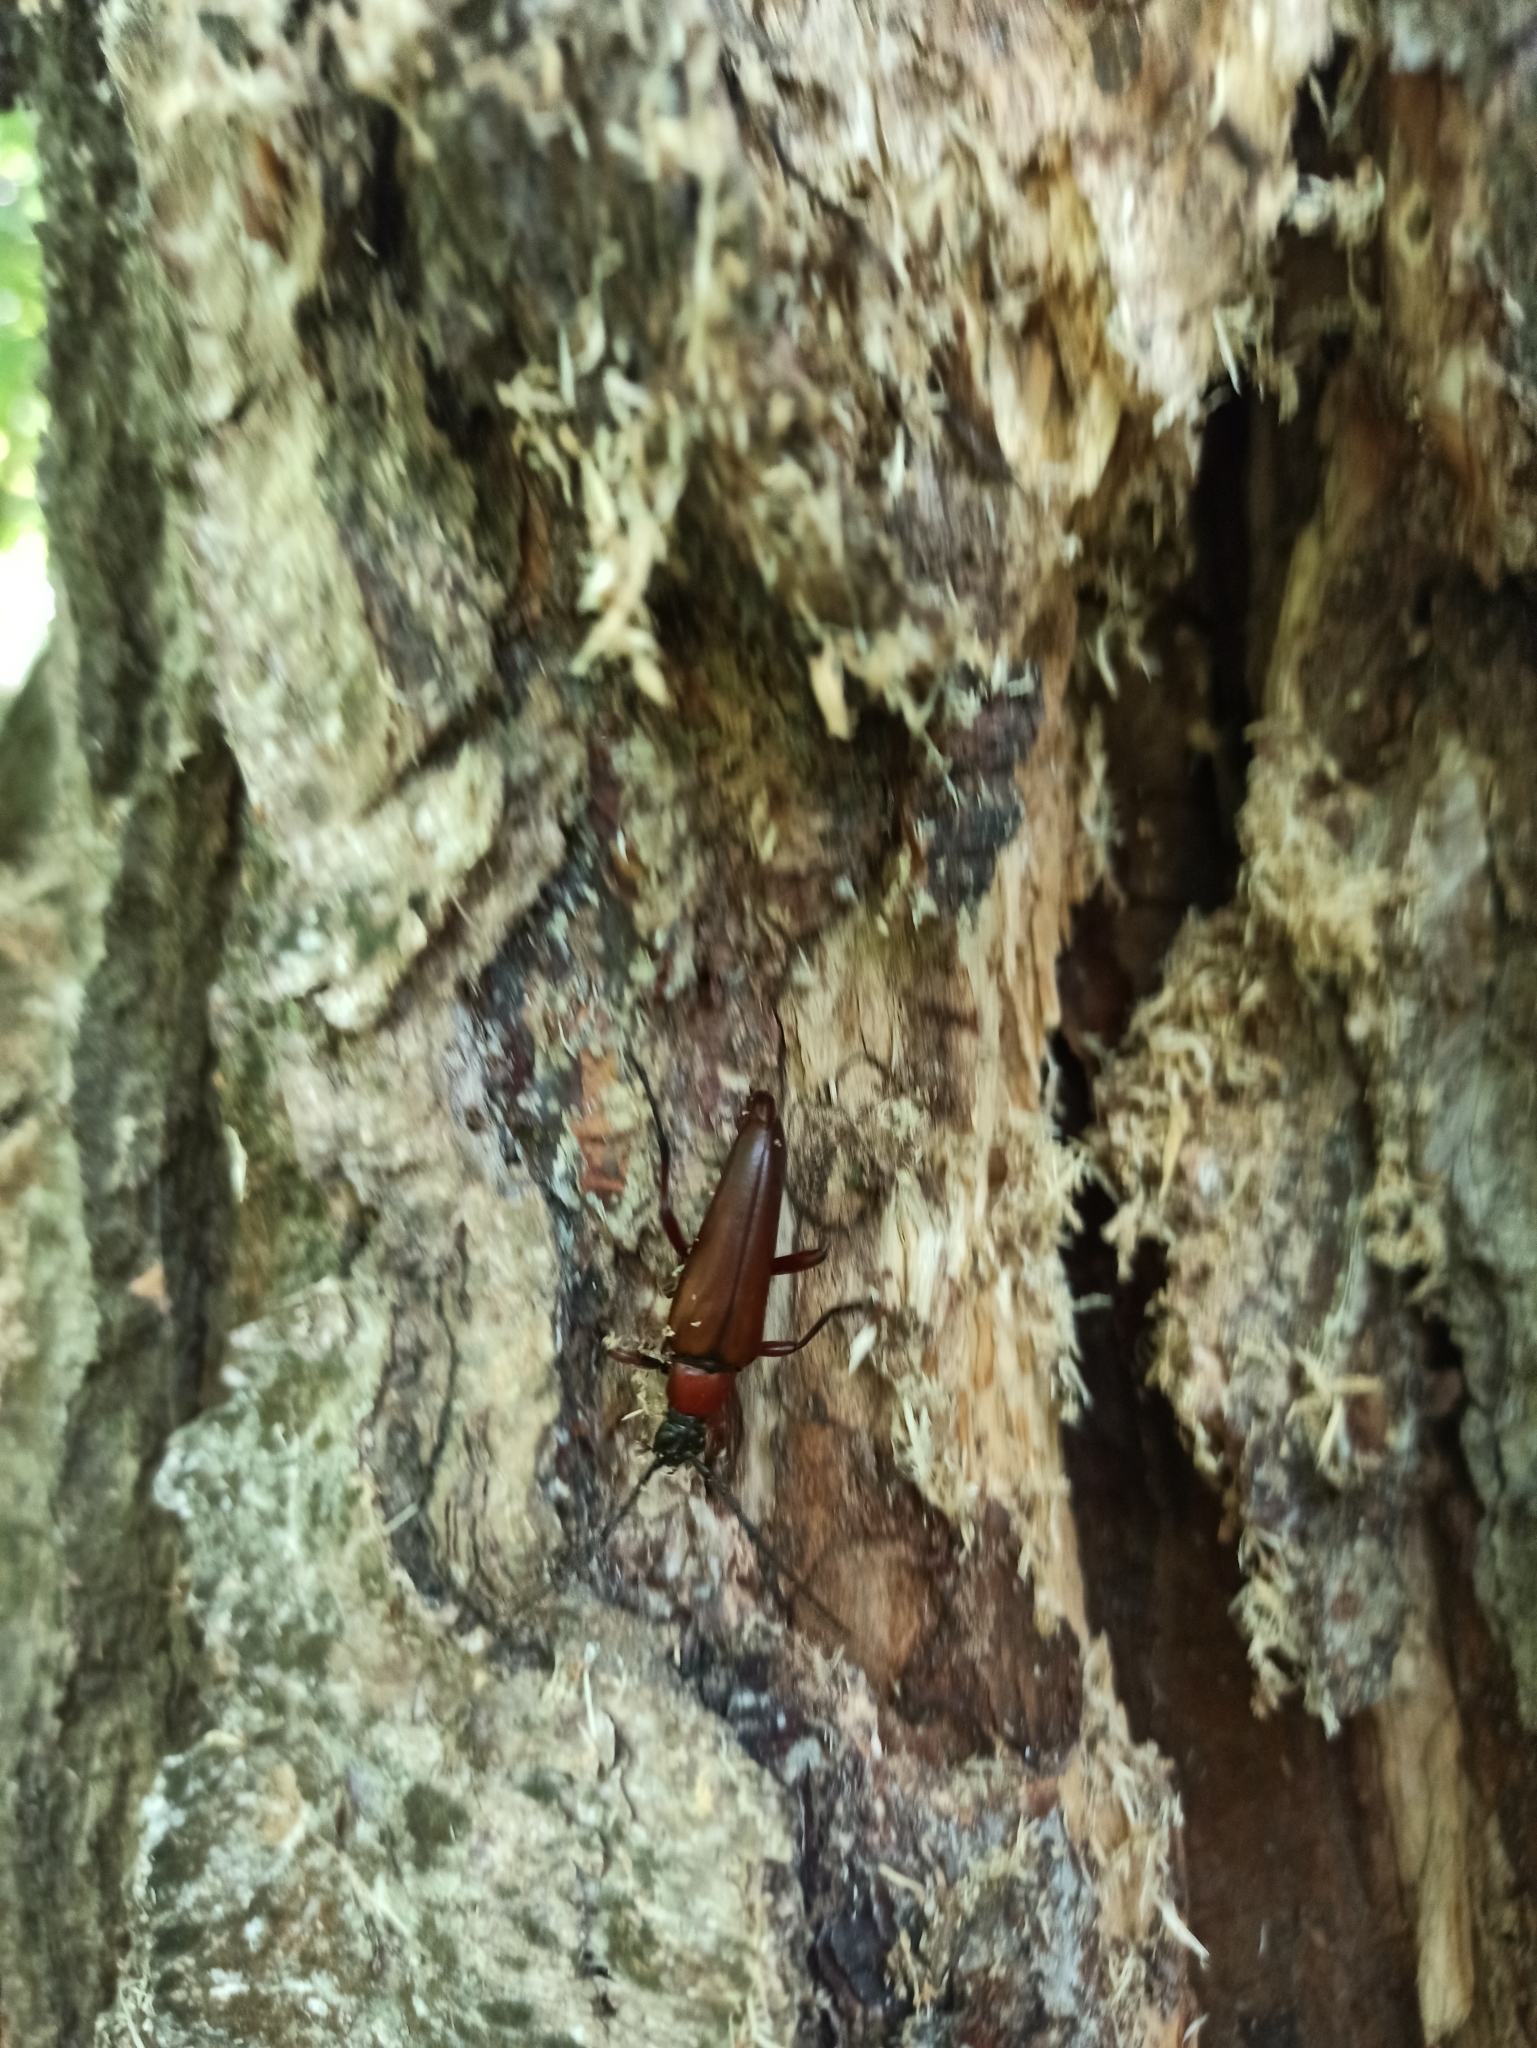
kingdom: Animalia
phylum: Arthropoda
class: Insecta
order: Coleoptera
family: Cerambycidae
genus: Leptura
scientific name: Leptura thoracica
